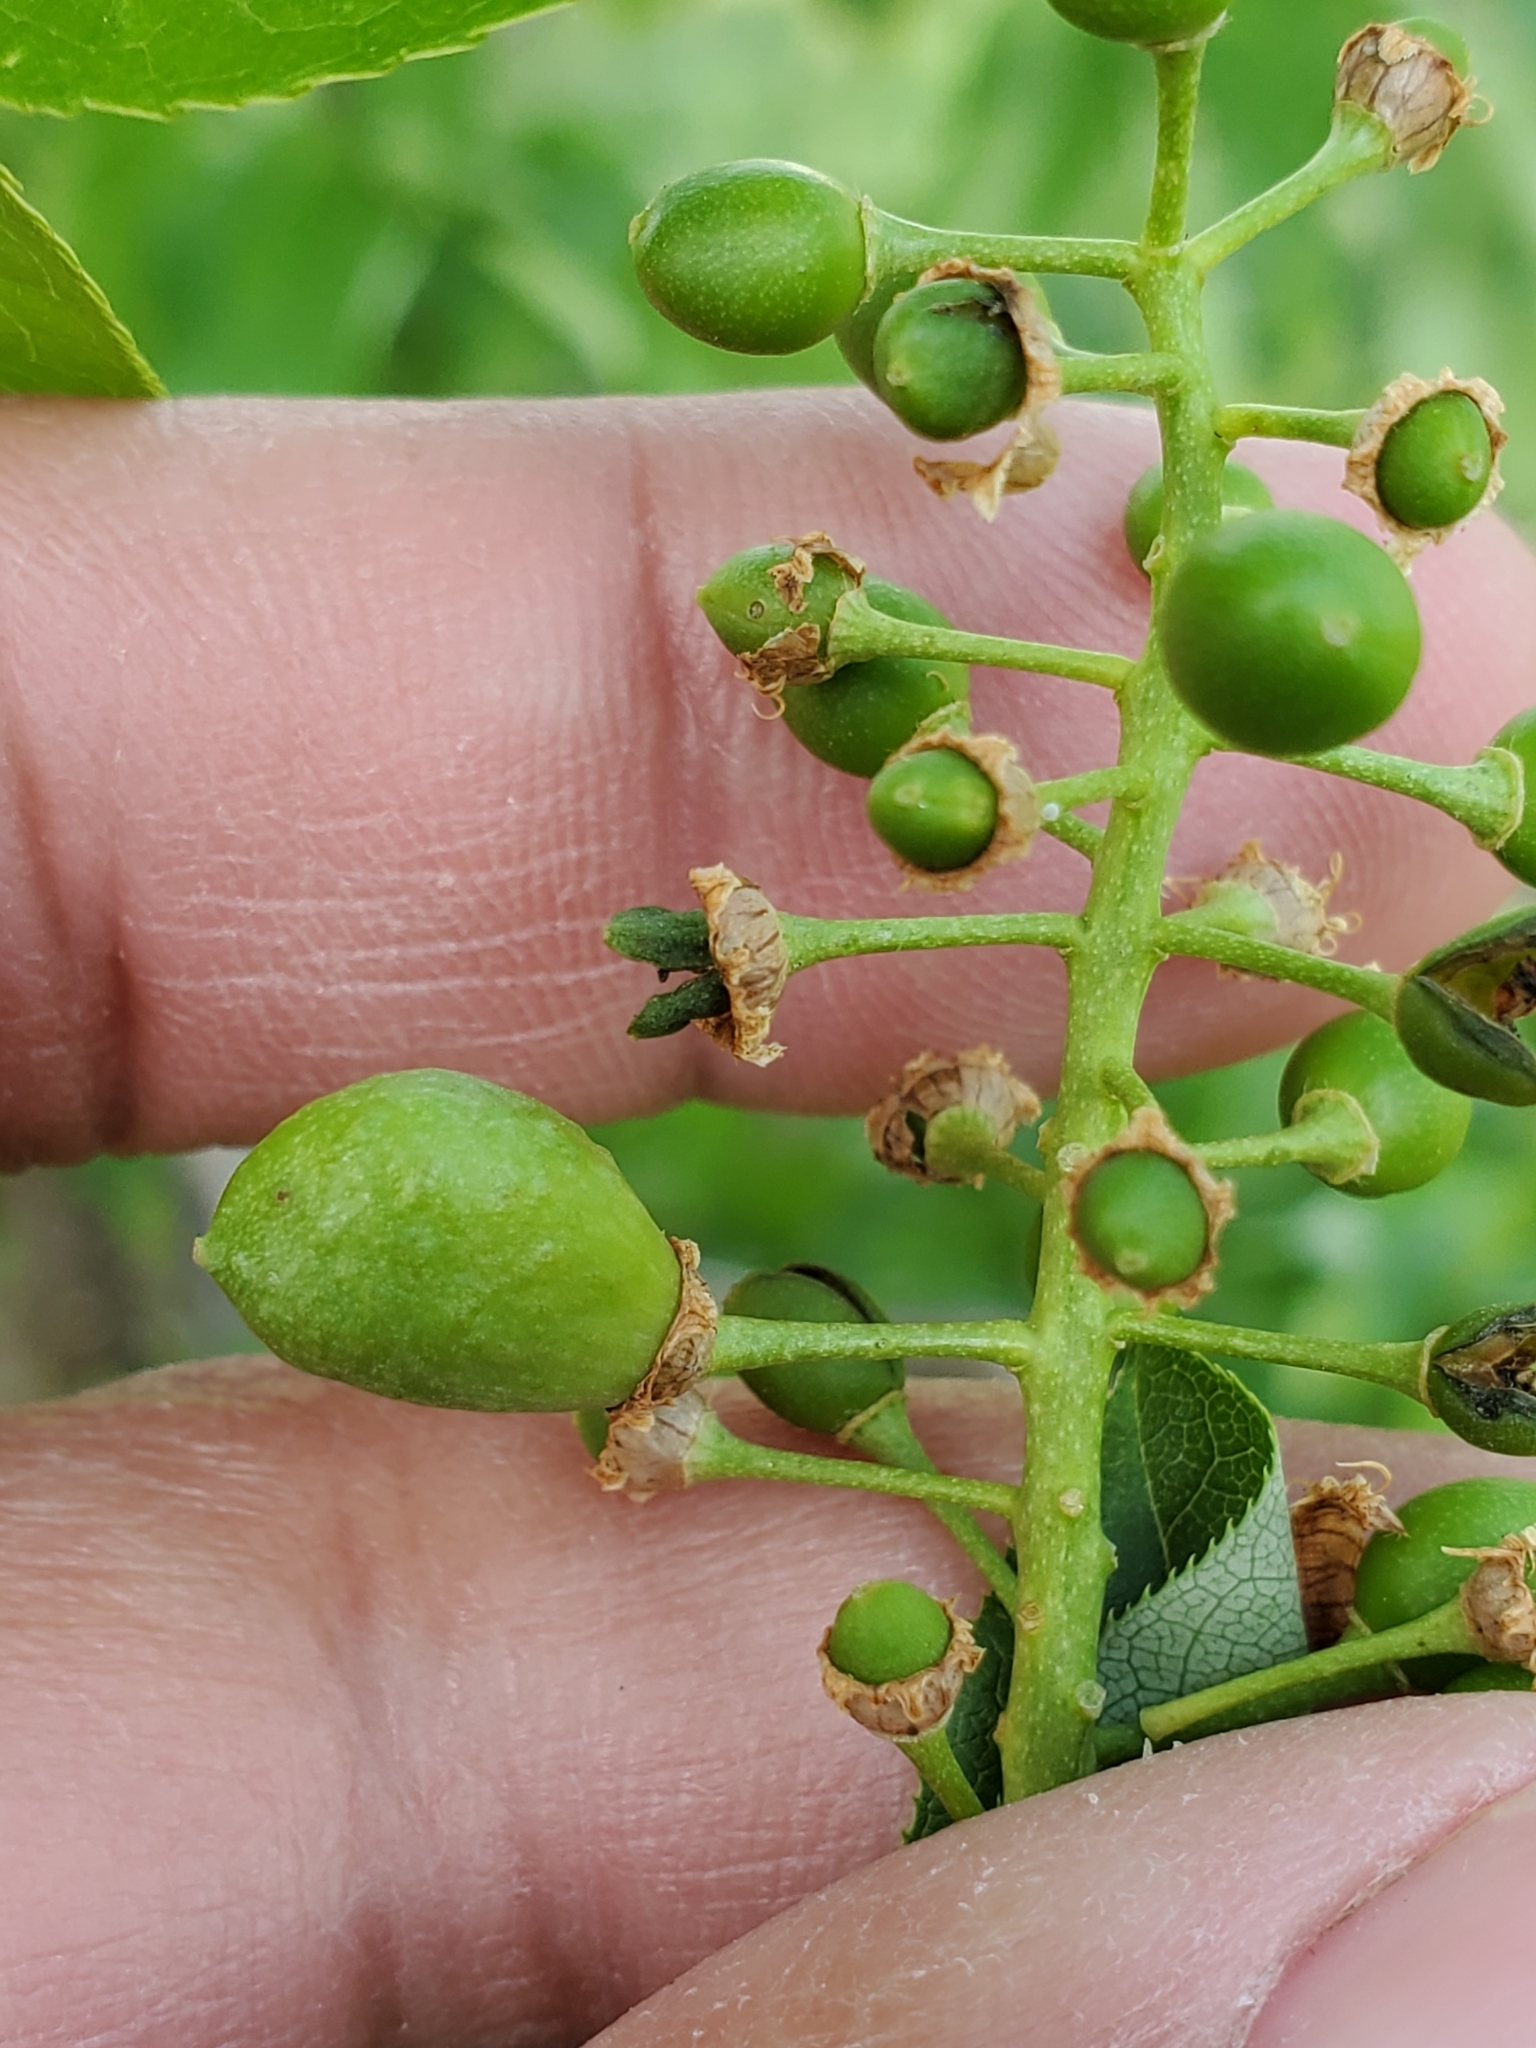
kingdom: Animalia
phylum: Arthropoda
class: Insecta
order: Diptera
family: Cecidomyiidae
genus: Contarinia
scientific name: Contarinia virginianiae
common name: Chokecherry midge
